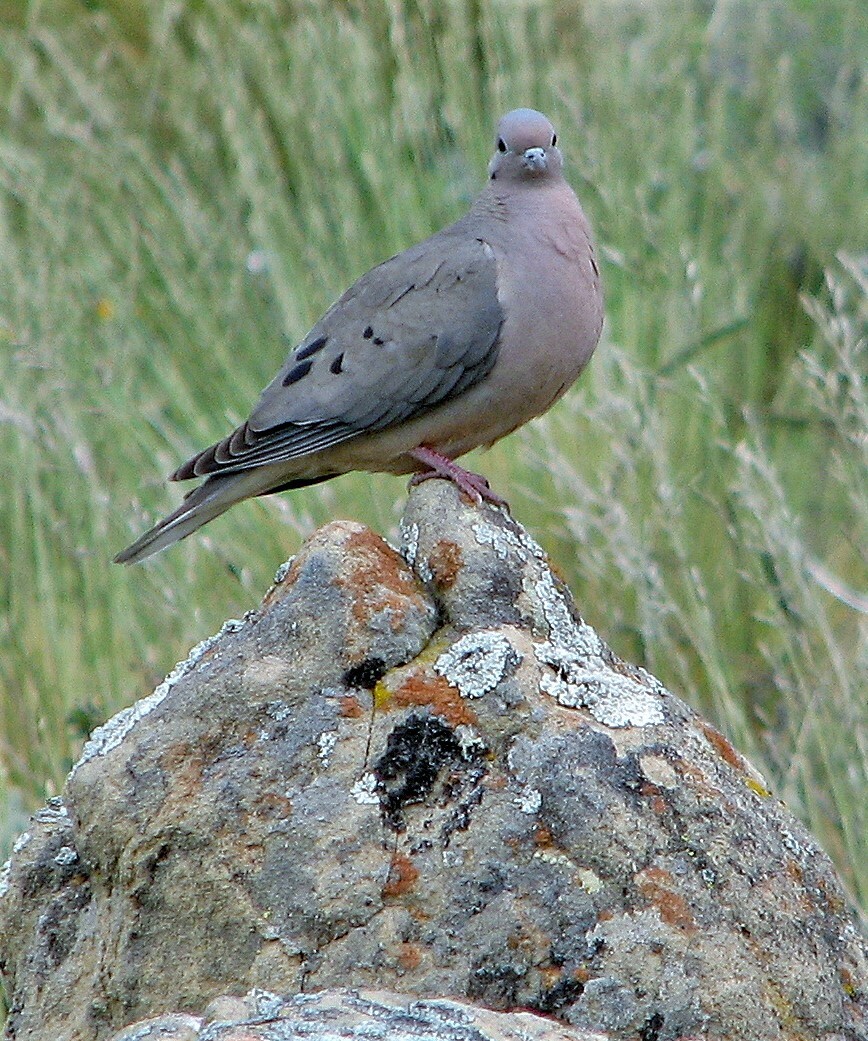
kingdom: Animalia
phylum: Chordata
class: Aves
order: Columbiformes
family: Columbidae
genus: Zenaida
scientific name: Zenaida auriculata
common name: Eared dove
